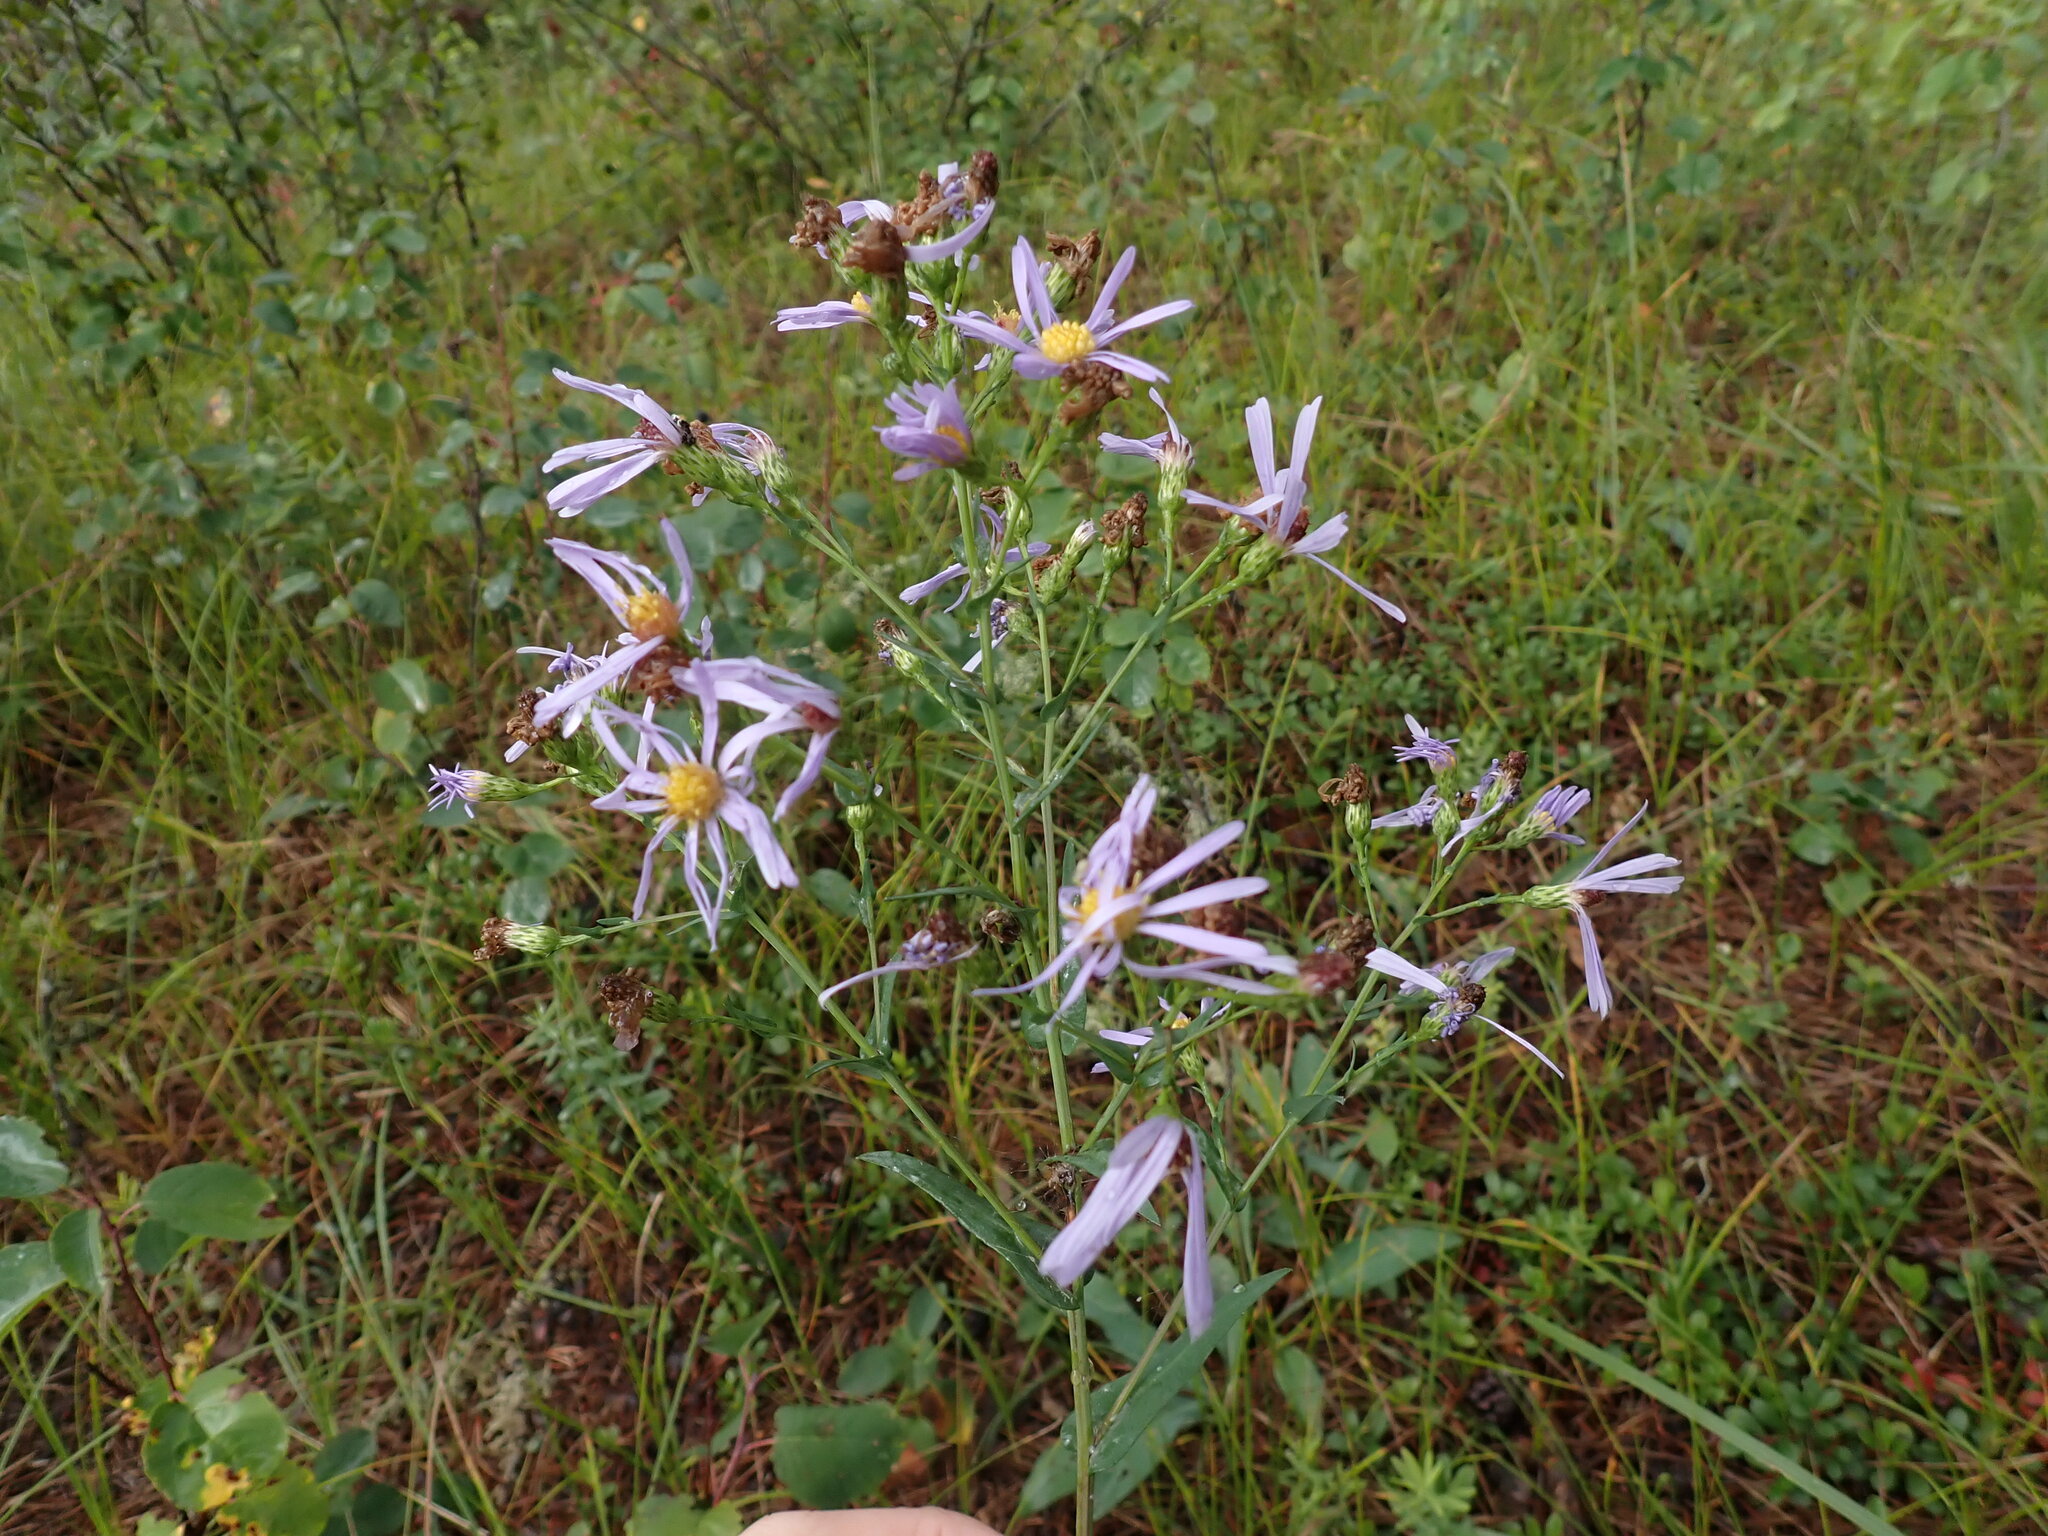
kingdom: Plantae
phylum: Tracheophyta
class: Magnoliopsida
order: Asterales
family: Asteraceae
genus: Symphyotrichum
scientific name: Symphyotrichum laeve
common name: Glaucous aster
